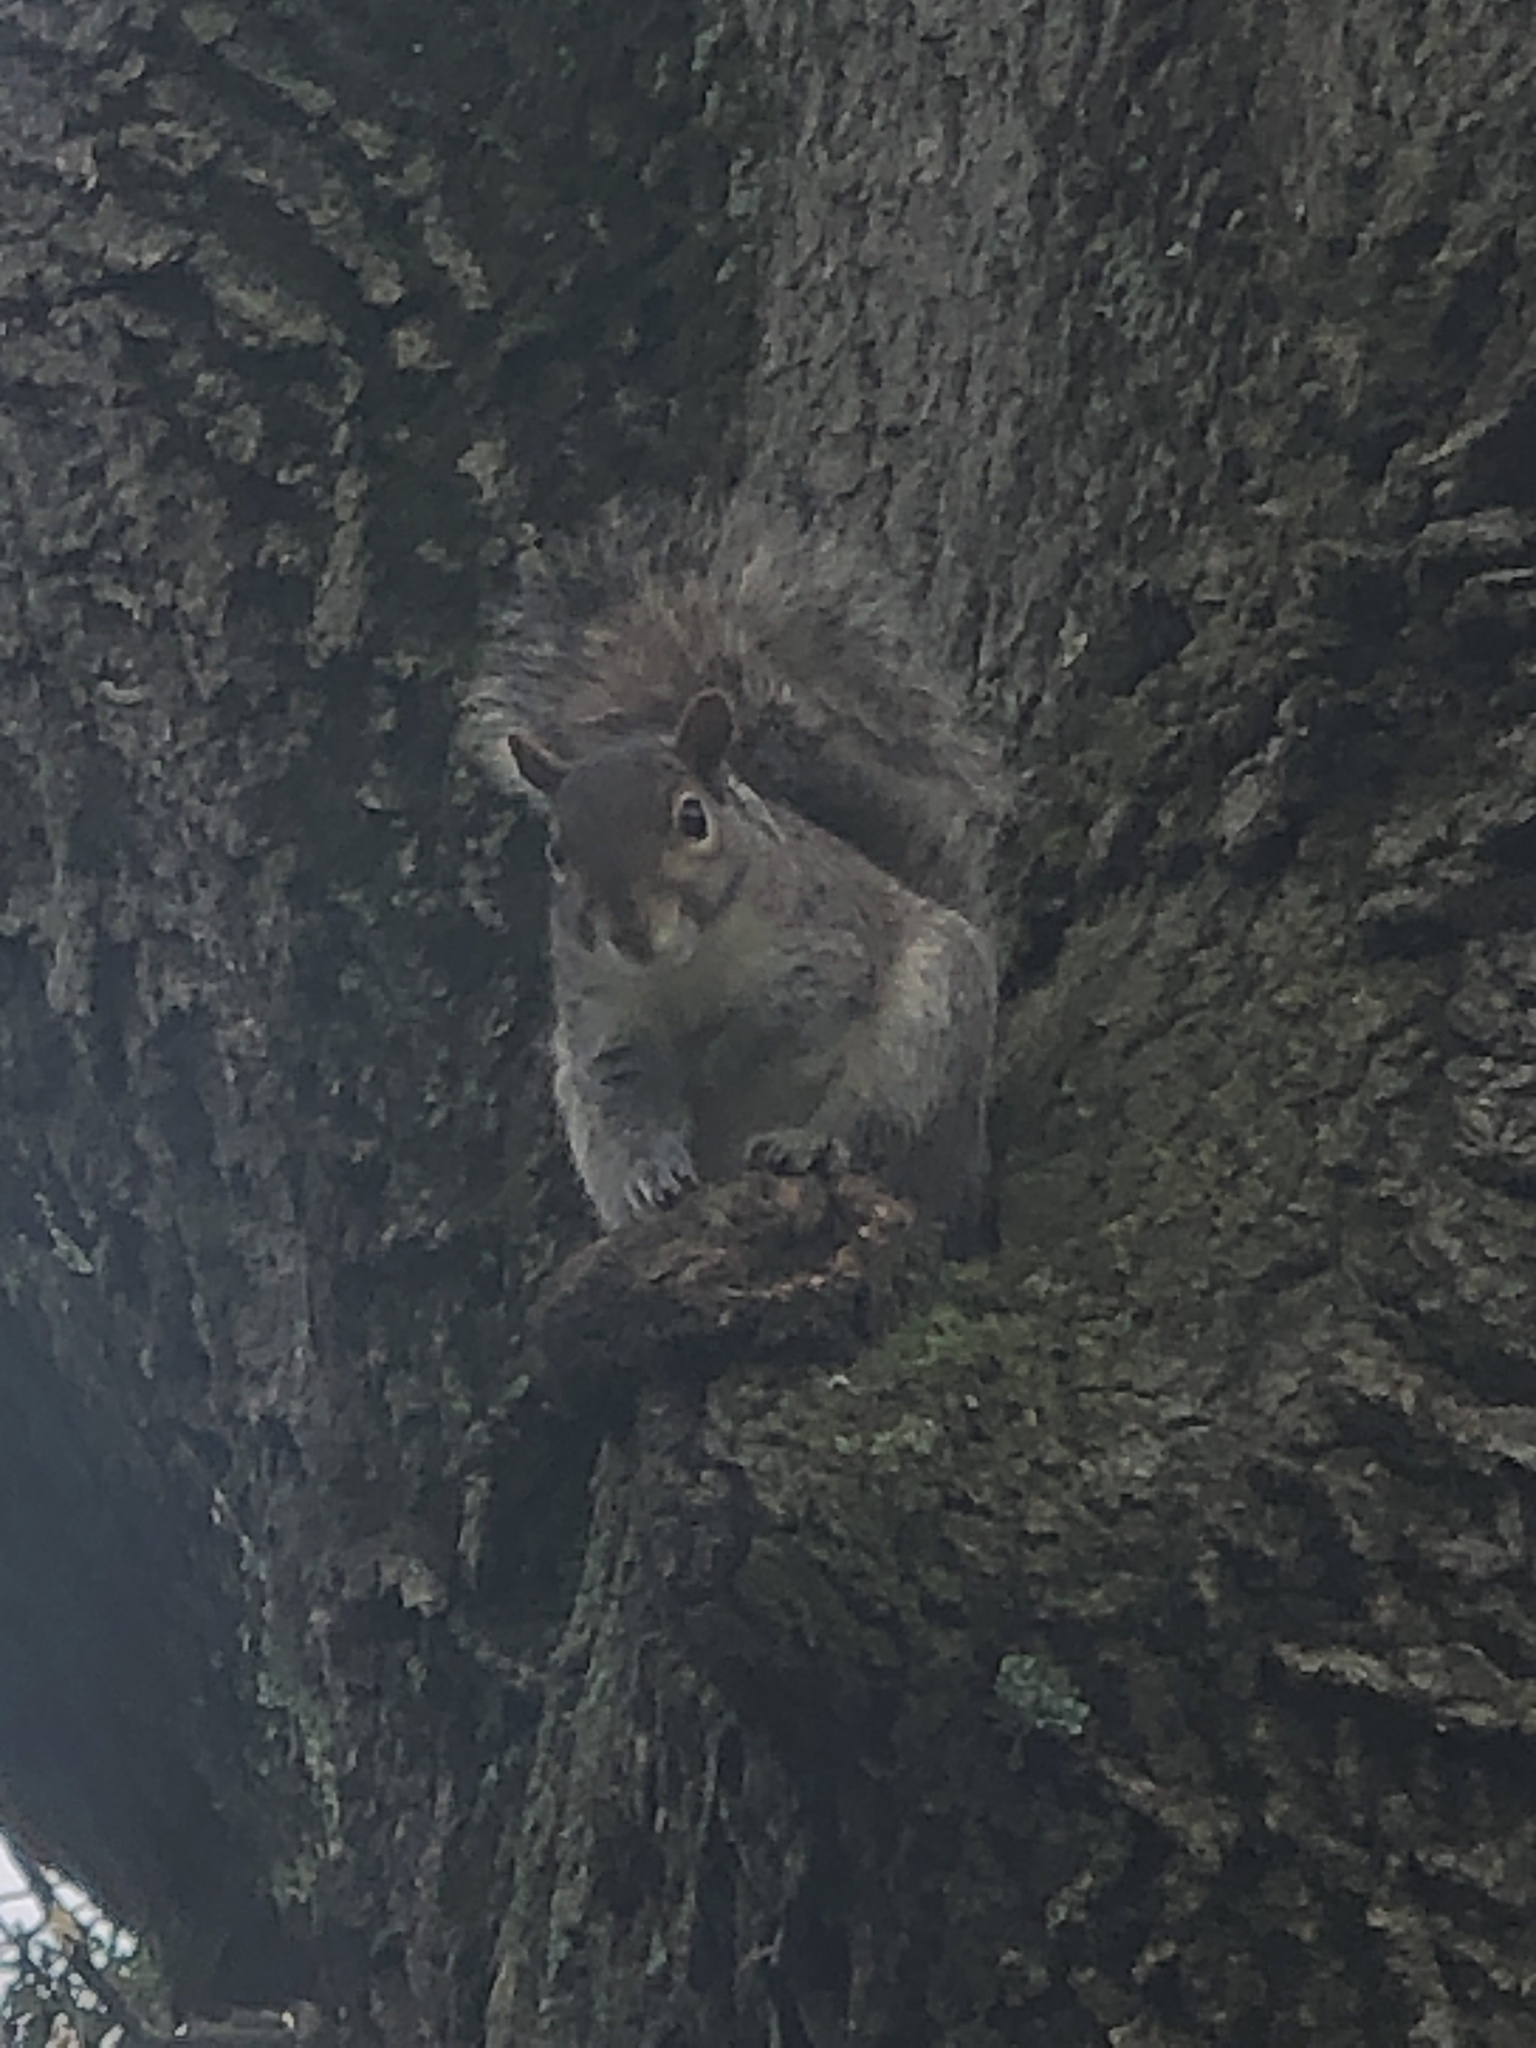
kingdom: Animalia
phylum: Chordata
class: Mammalia
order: Rodentia
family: Sciuridae
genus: Sciurus
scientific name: Sciurus carolinensis
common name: Eastern gray squirrel
